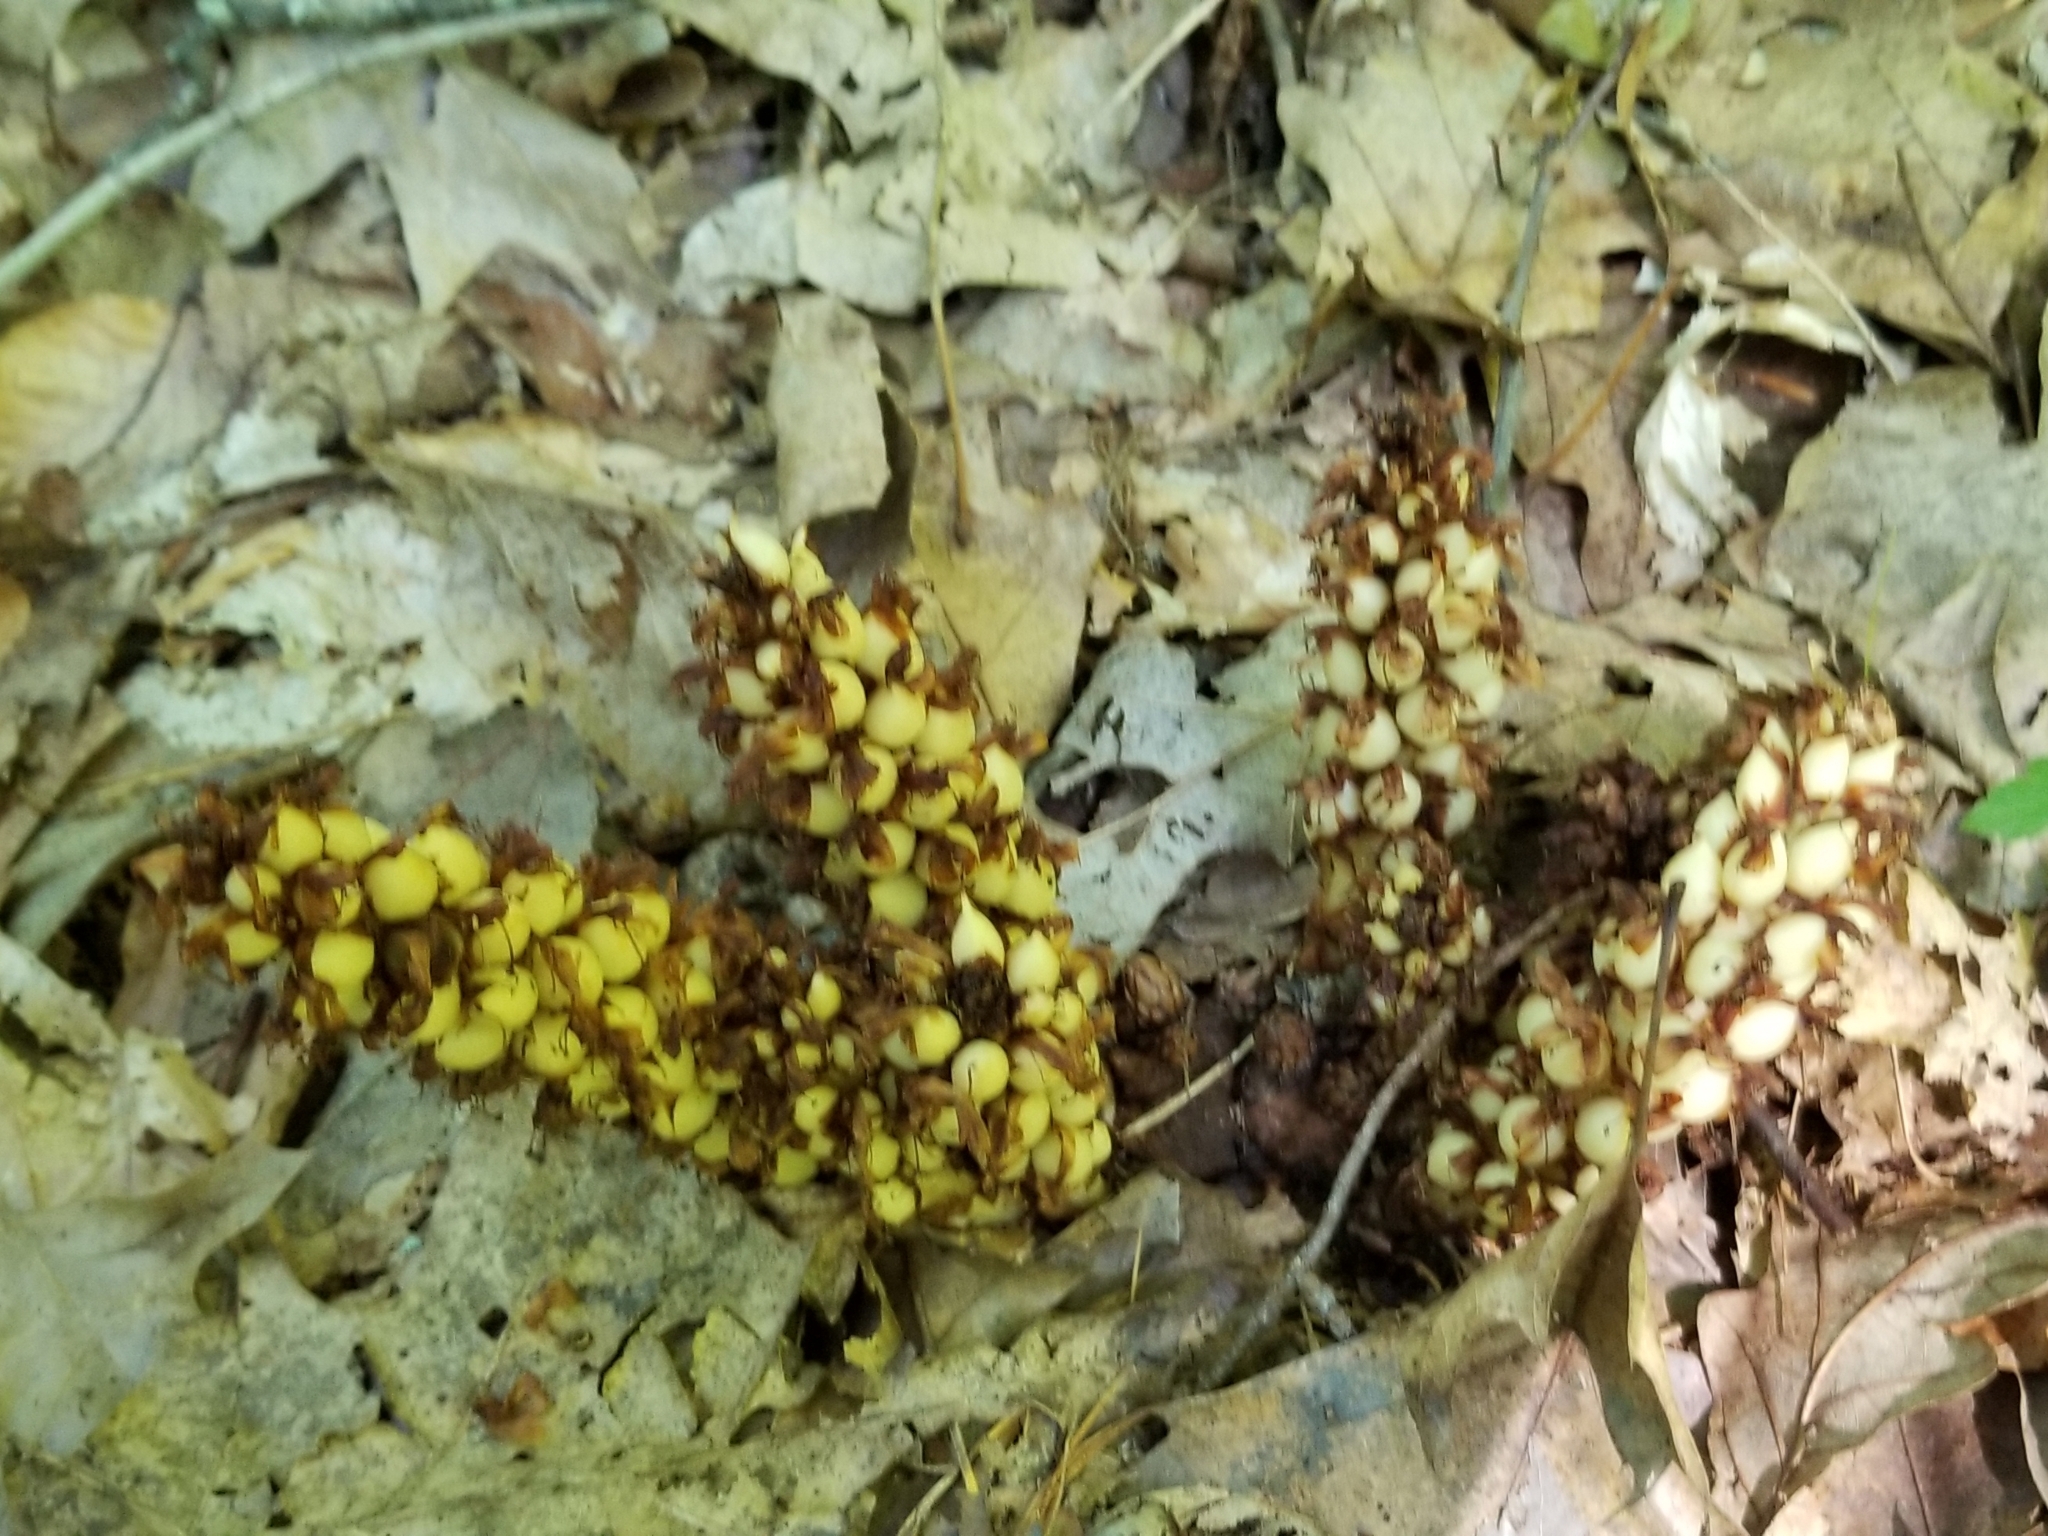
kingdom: Plantae
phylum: Tracheophyta
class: Magnoliopsida
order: Lamiales
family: Orobanchaceae
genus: Conopholis
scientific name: Conopholis americana
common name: American cancer-root
